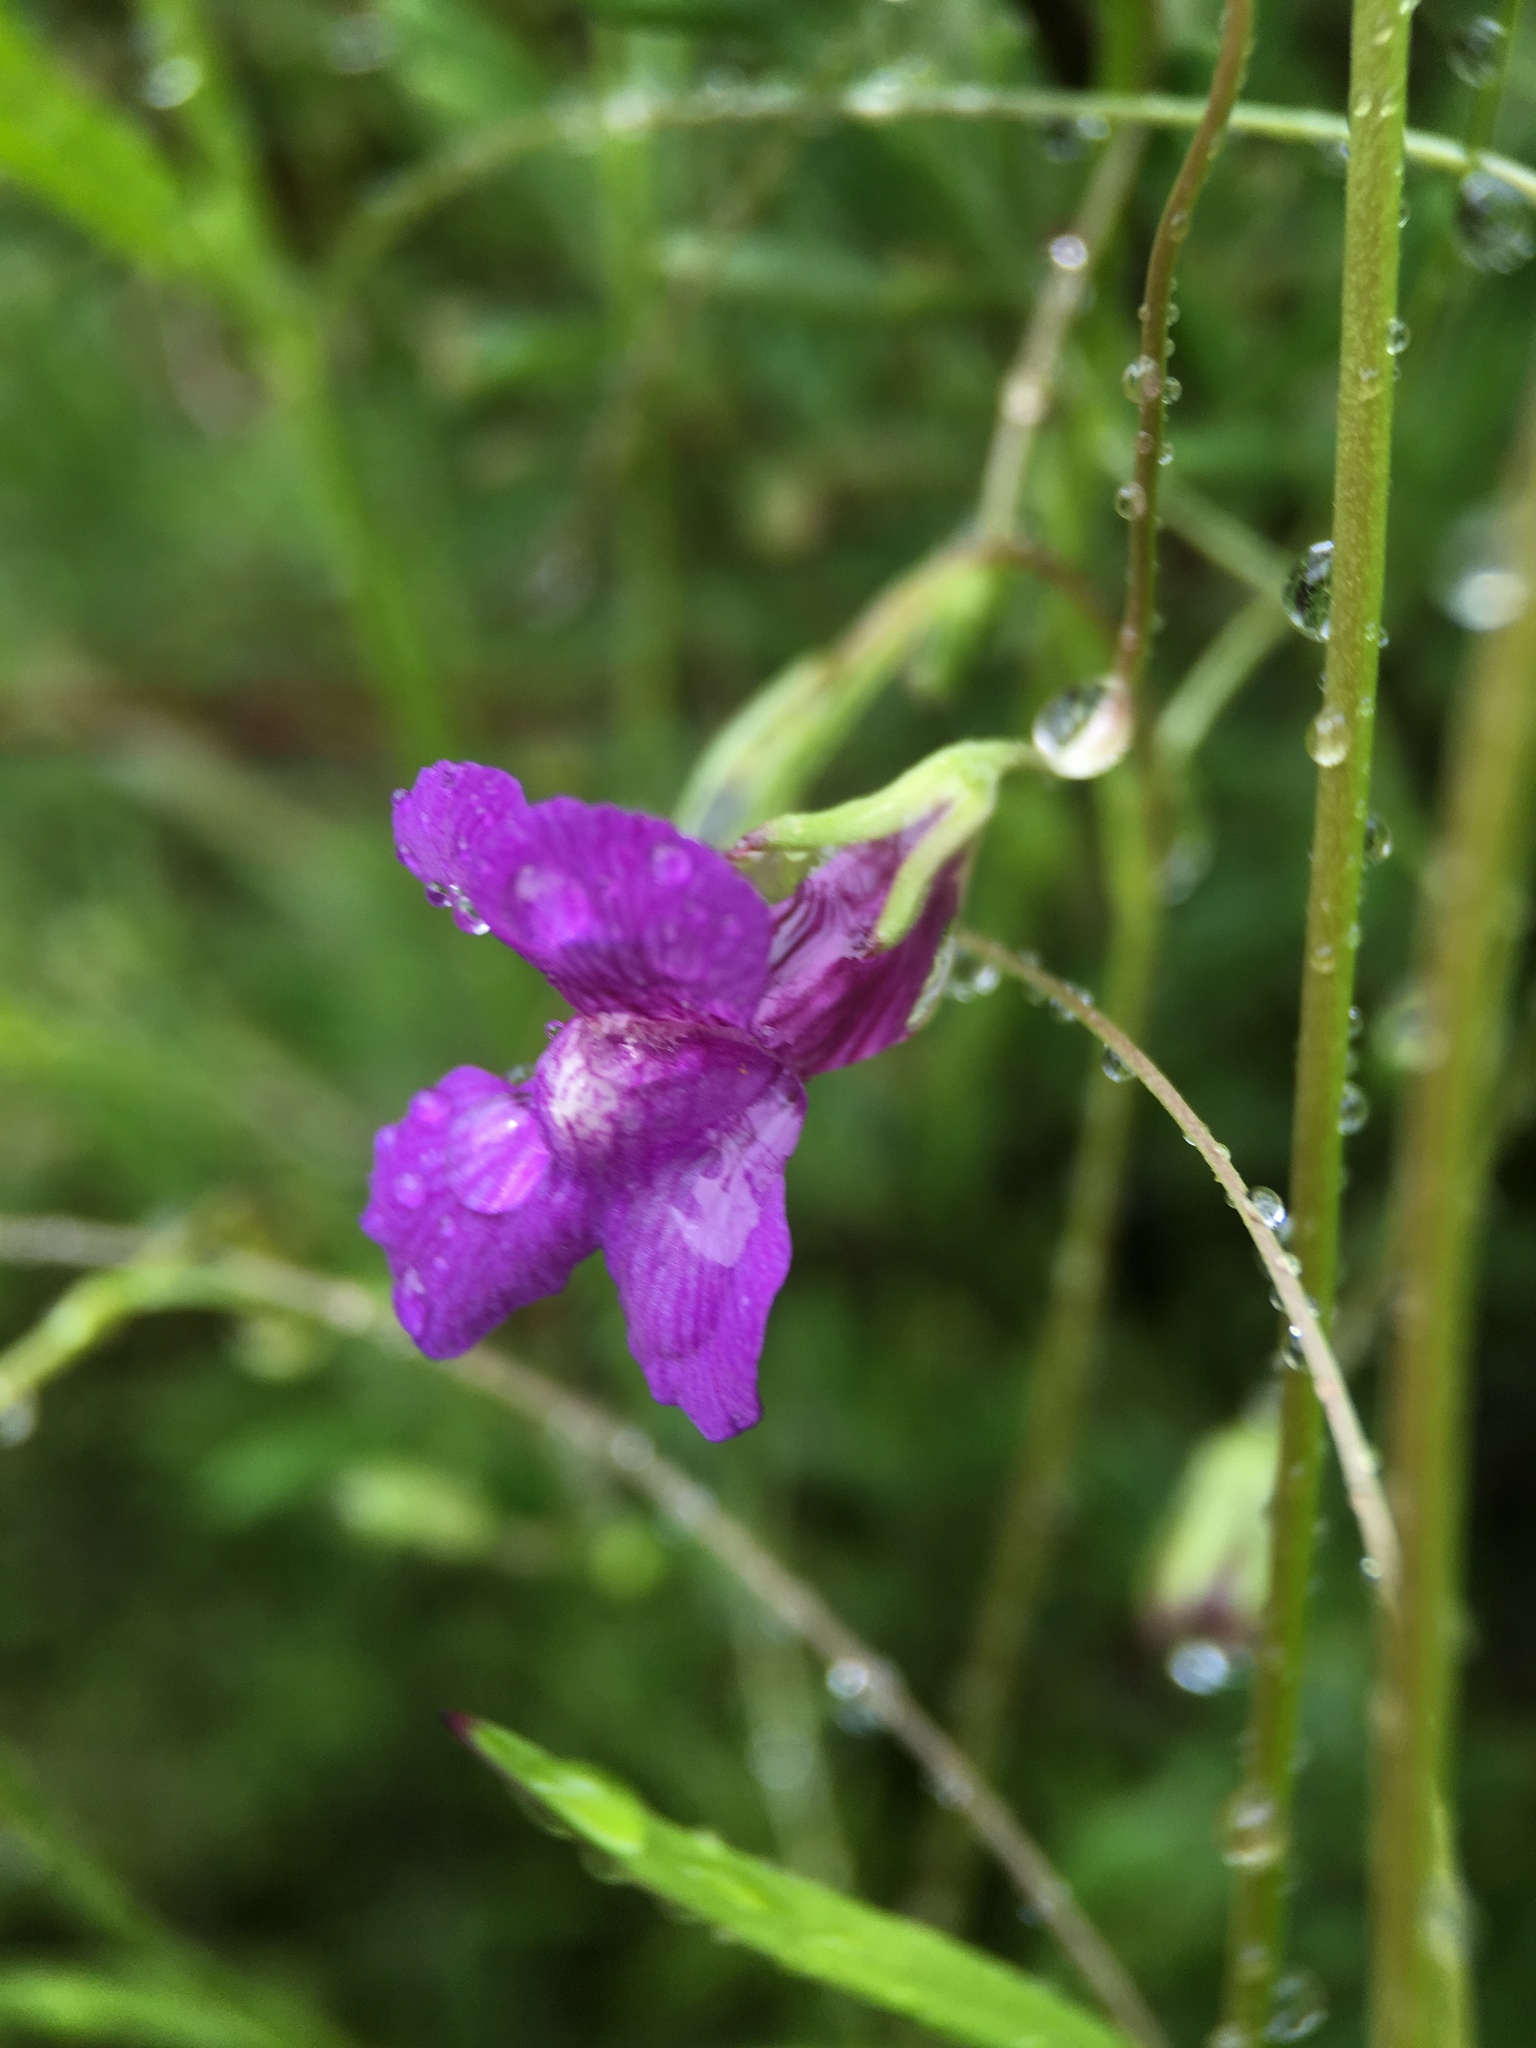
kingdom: Plantae
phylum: Tracheophyta
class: Magnoliopsida
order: Lamiales
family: Plantaginaceae
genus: Neogaerrhinum
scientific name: Neogaerrhinum strictum
